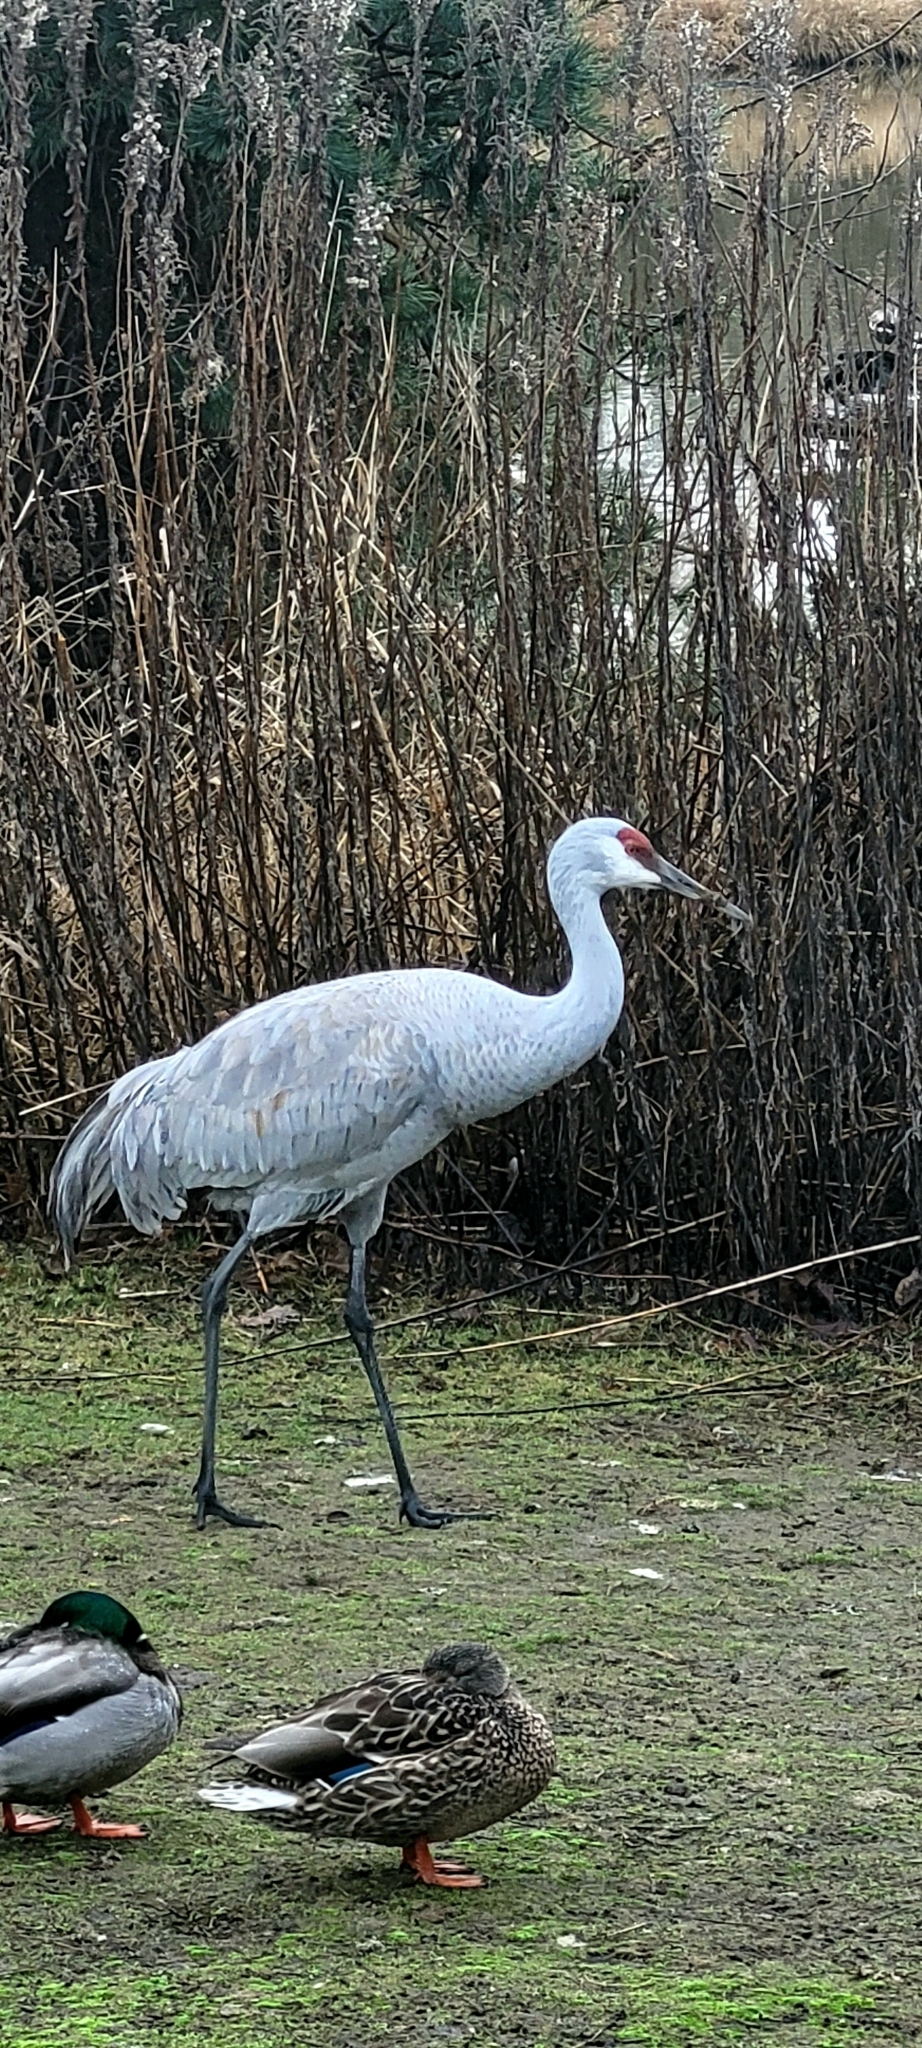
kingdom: Animalia
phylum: Chordata
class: Aves
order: Gruiformes
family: Gruidae
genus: Grus
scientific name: Grus canadensis
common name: Sandhill crane
